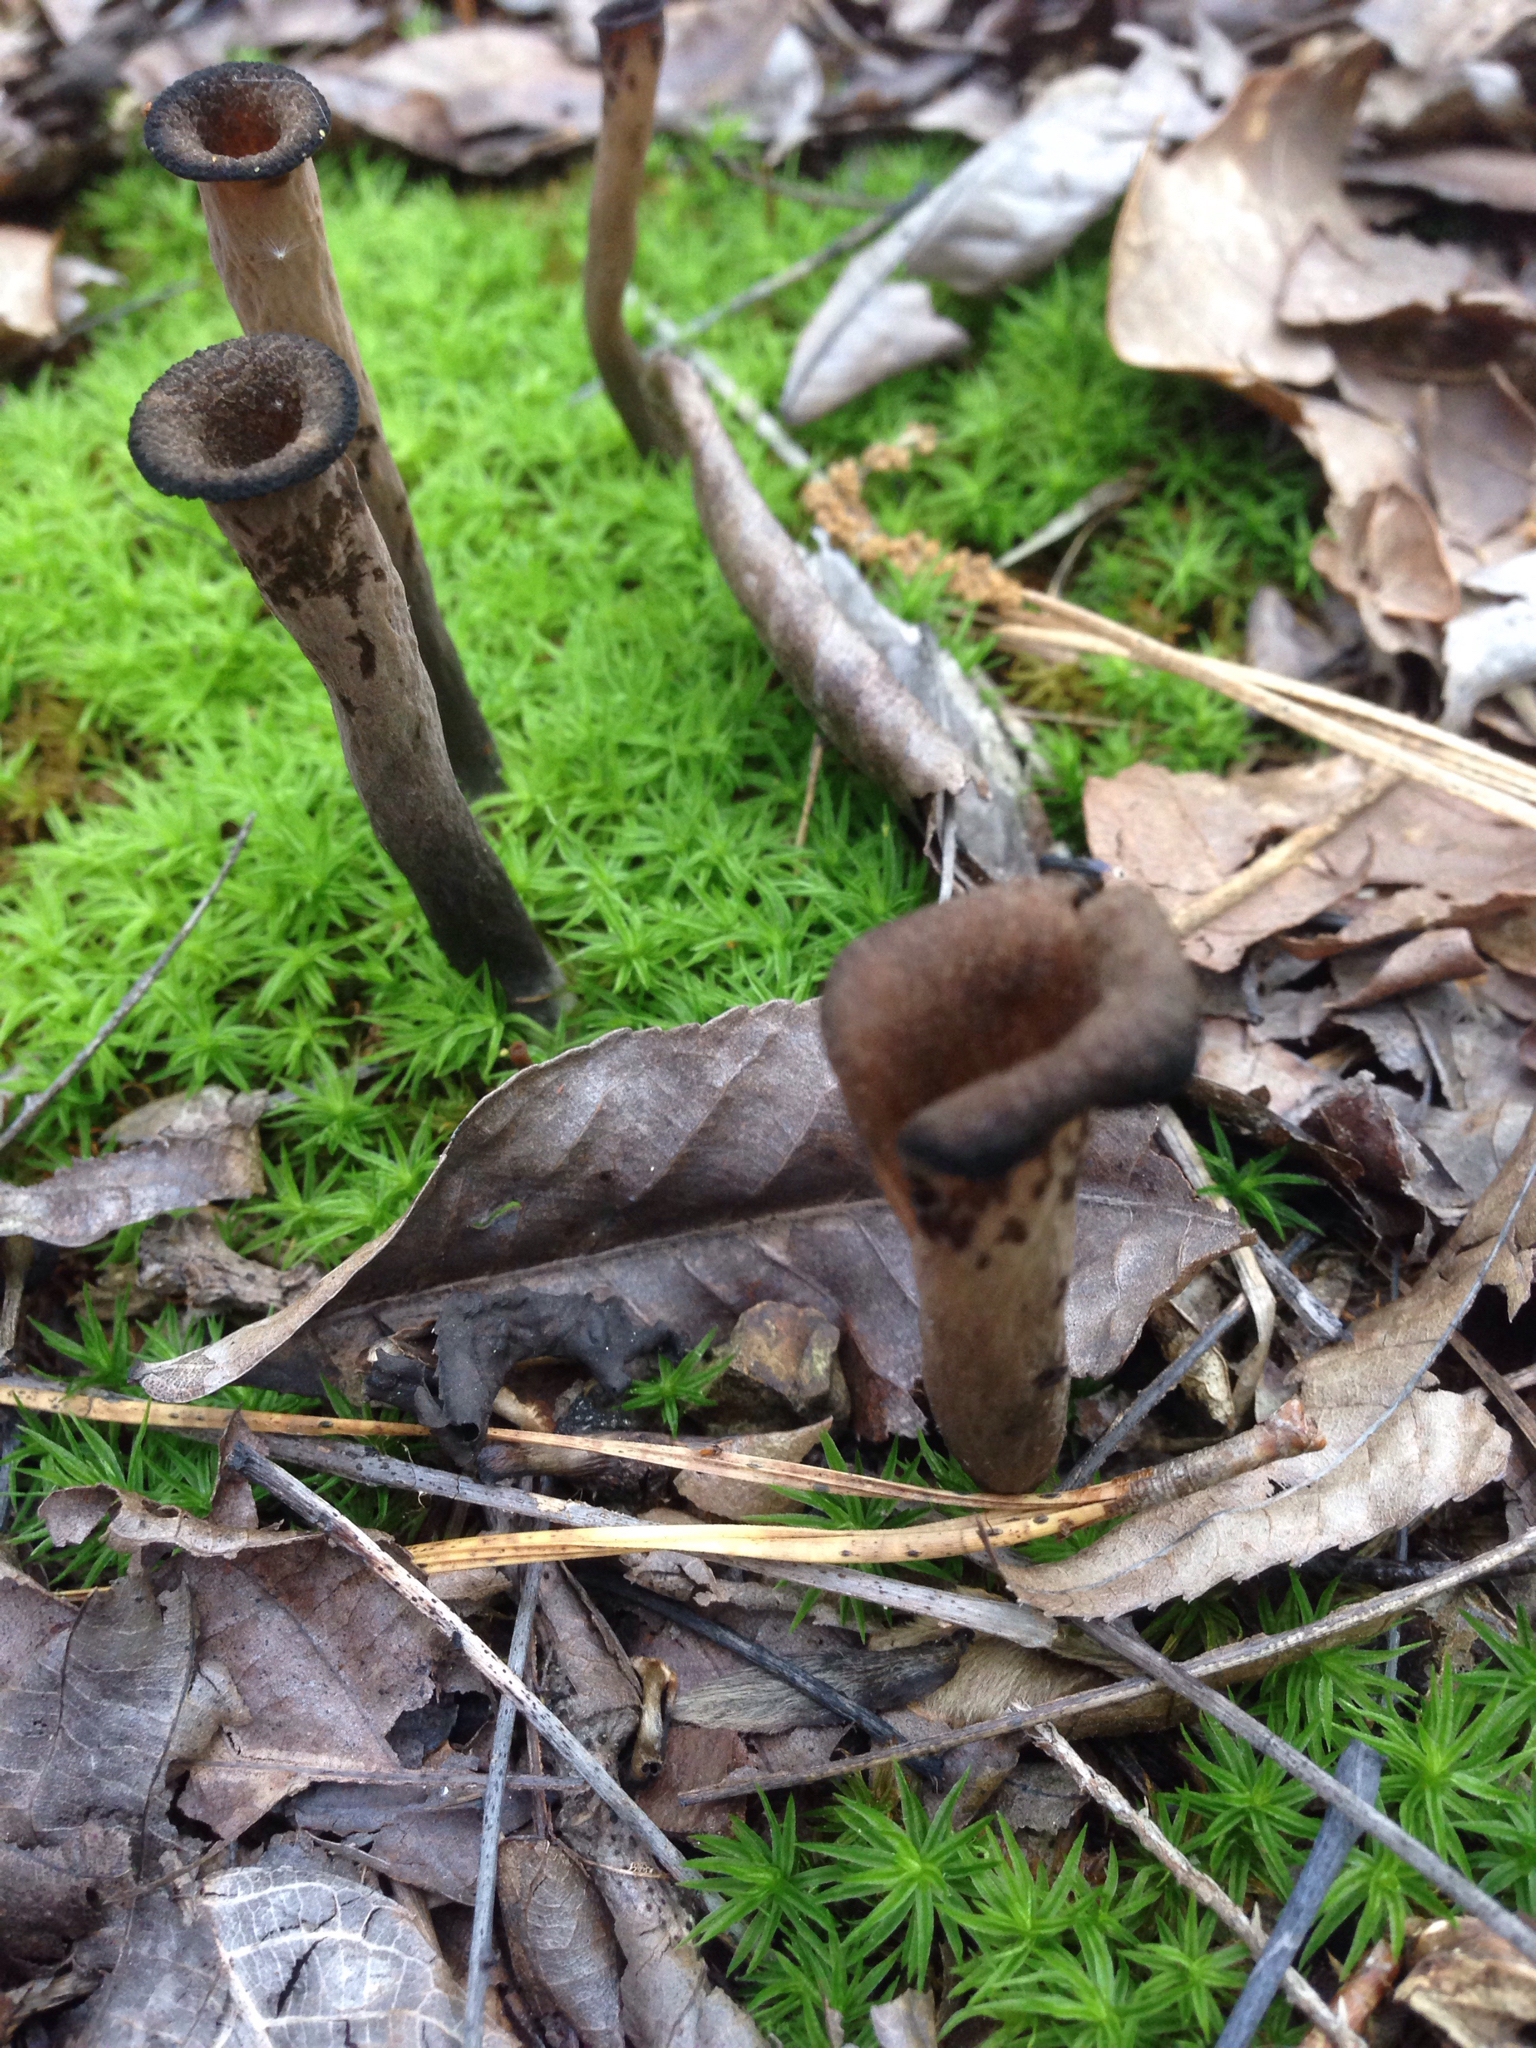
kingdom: Fungi
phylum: Basidiomycota
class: Agaricomycetes
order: Cantharellales
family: Hydnaceae
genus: Craterellus
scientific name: Craterellus cornucopioides
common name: Horn of plenty
